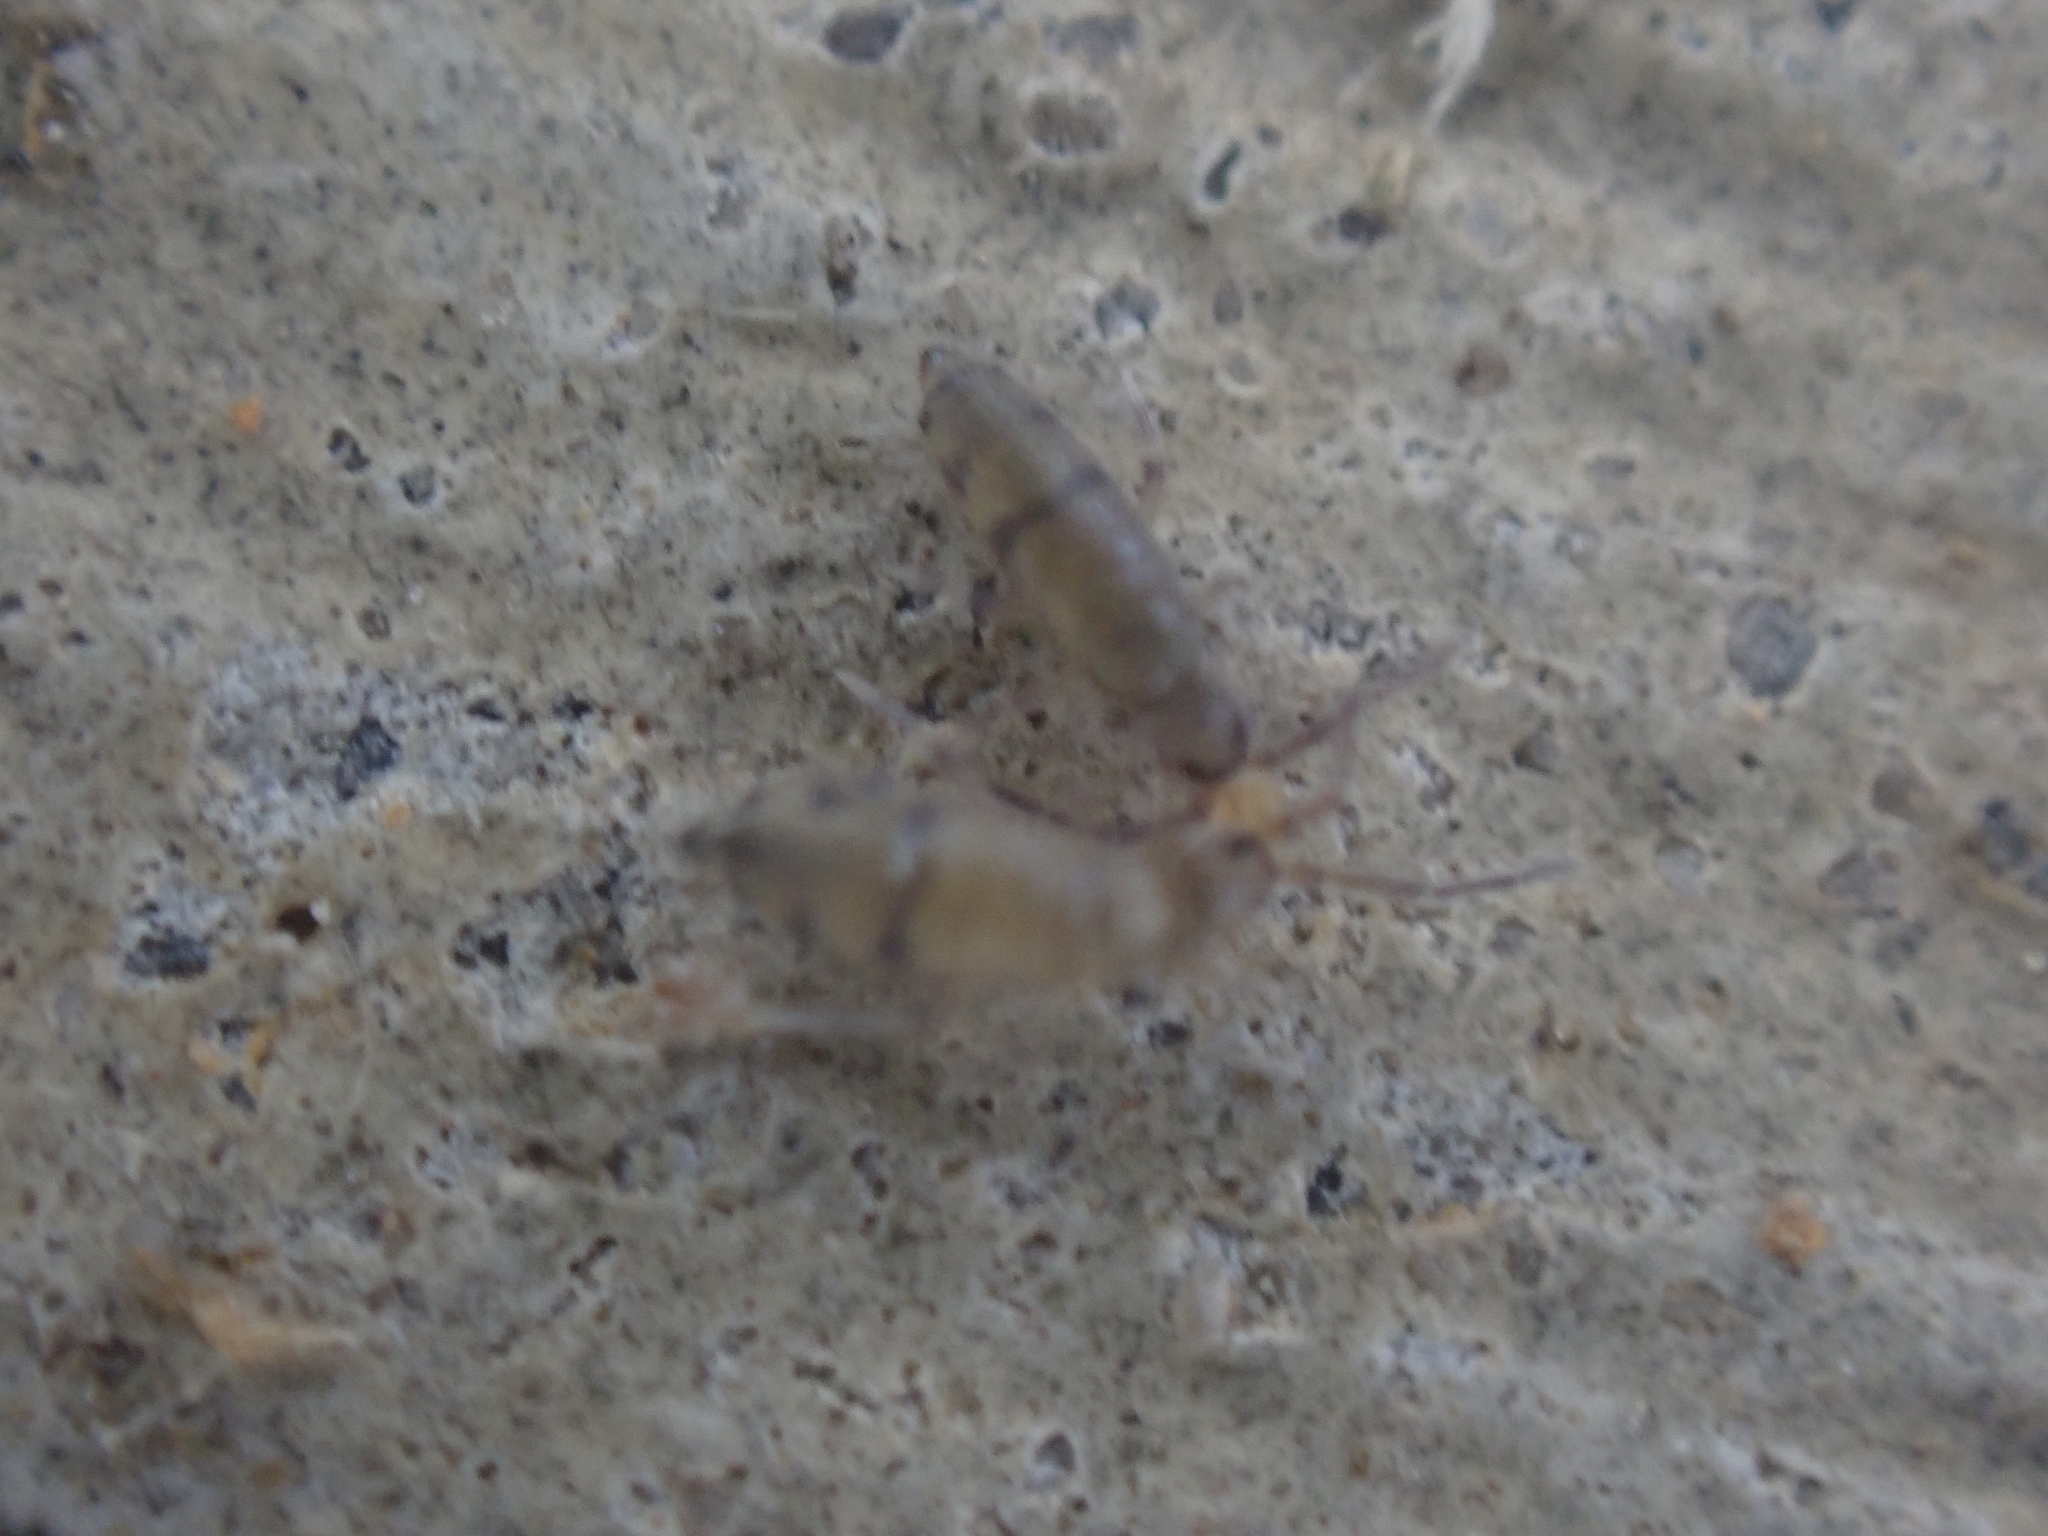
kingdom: Animalia
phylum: Arthropoda
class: Collembola
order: Entomobryomorpha
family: Entomobryidae
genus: Willowsia
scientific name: Willowsia nigromaculata
